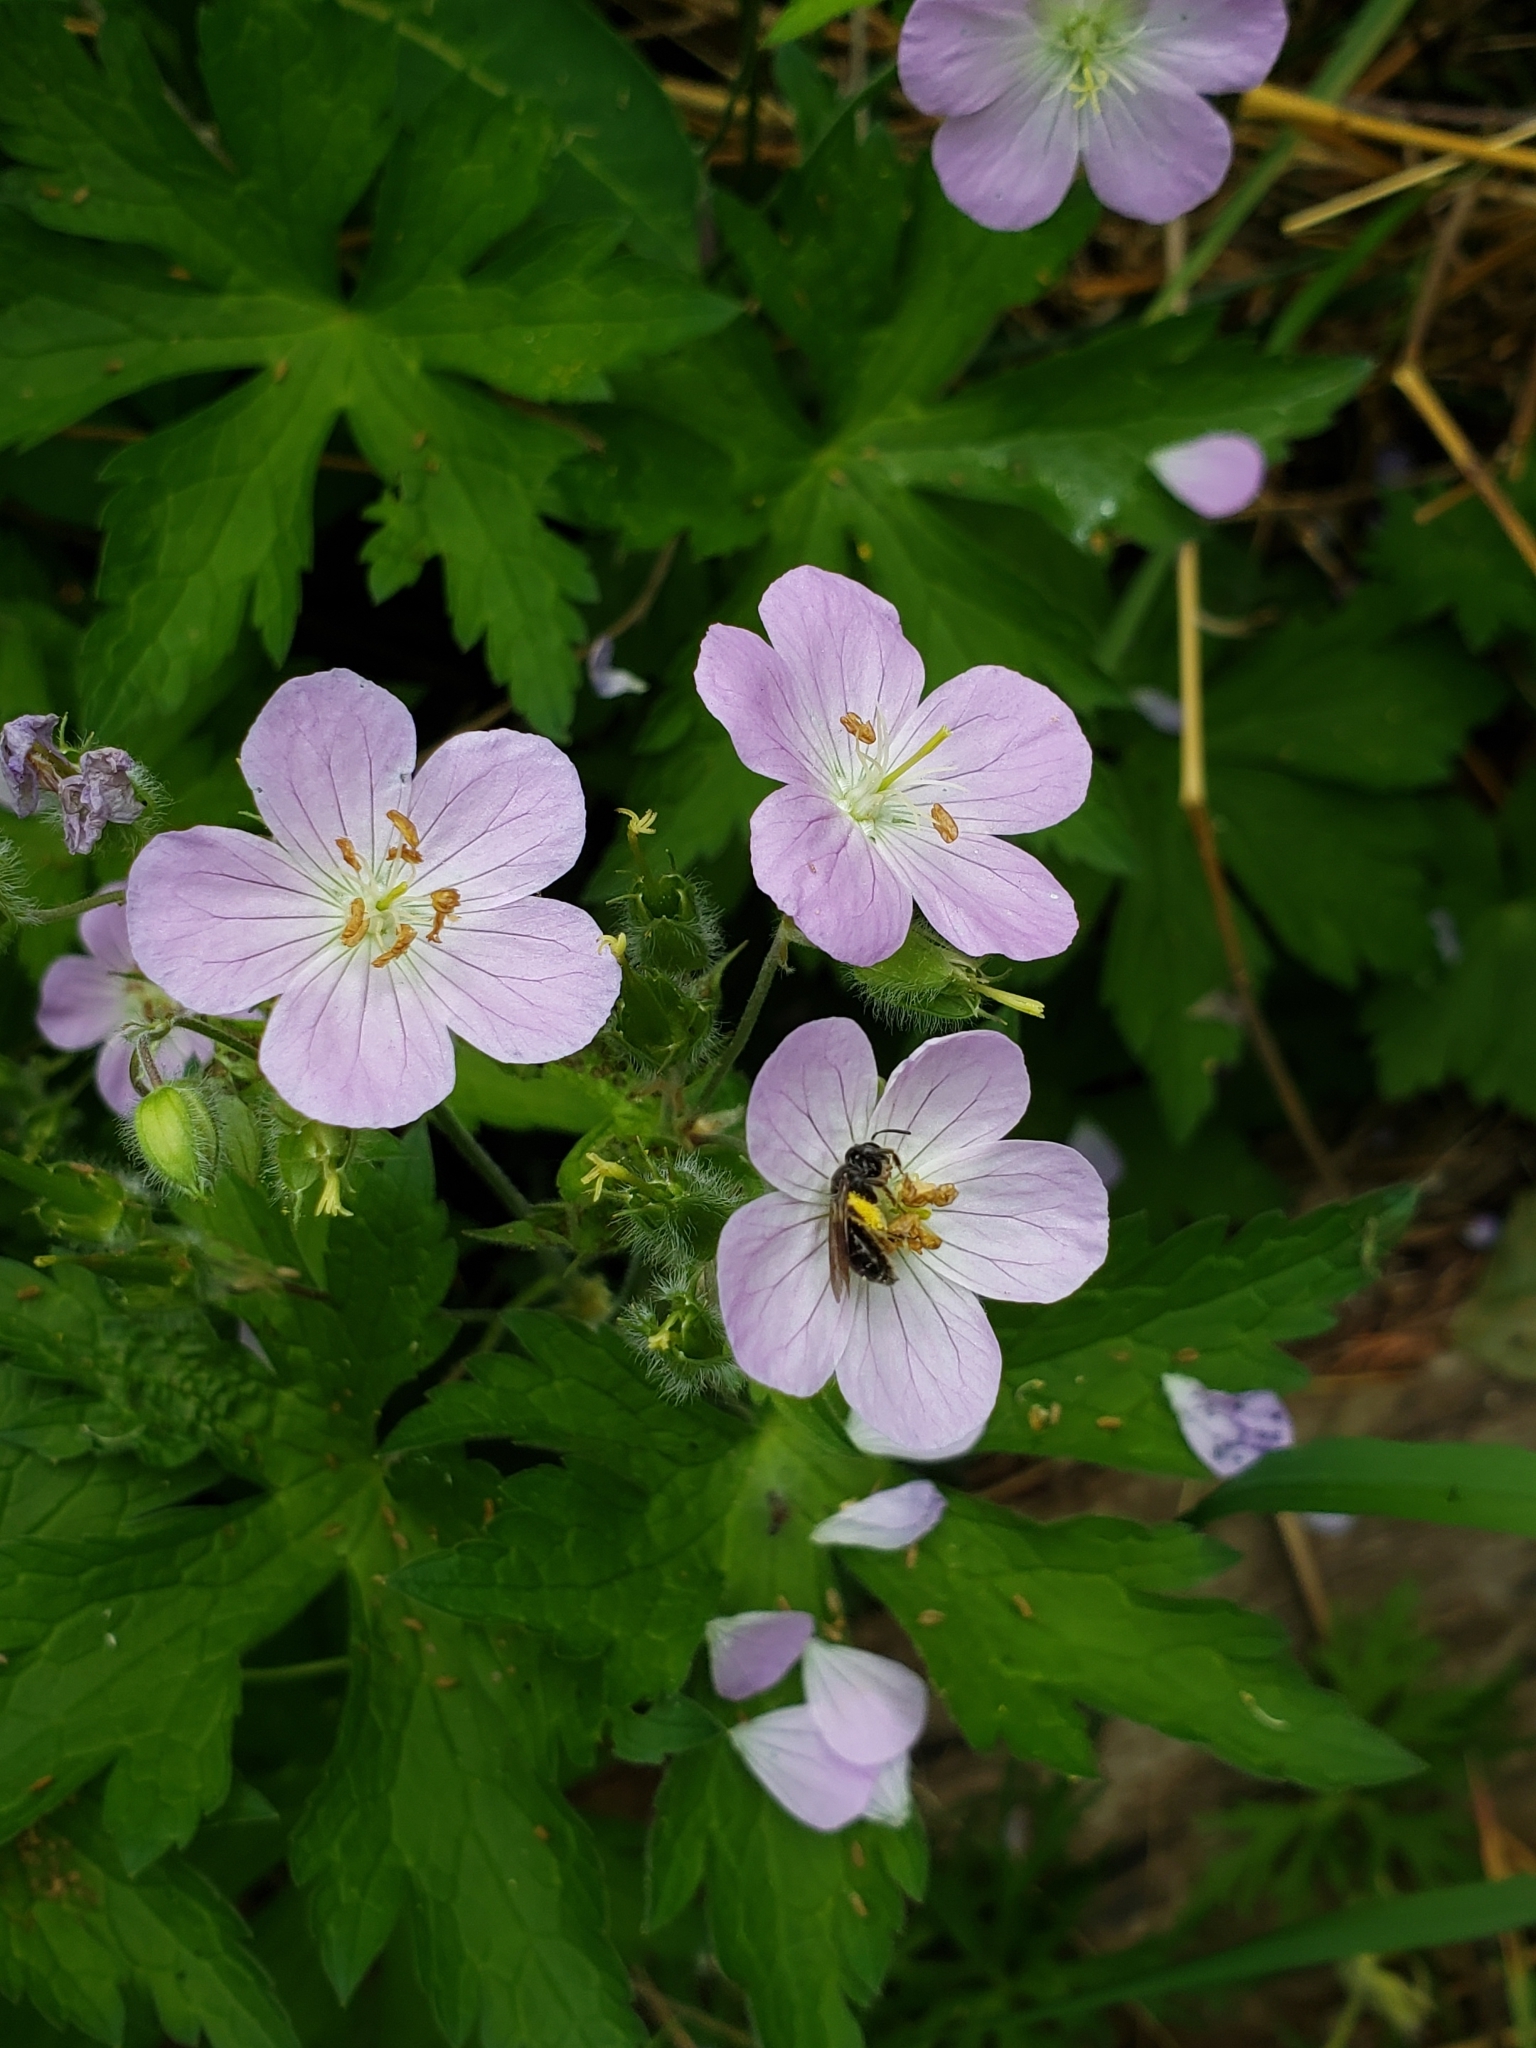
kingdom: Plantae
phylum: Tracheophyta
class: Magnoliopsida
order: Geraniales
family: Geraniaceae
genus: Geranium
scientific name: Geranium maculatum
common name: Spotted geranium
